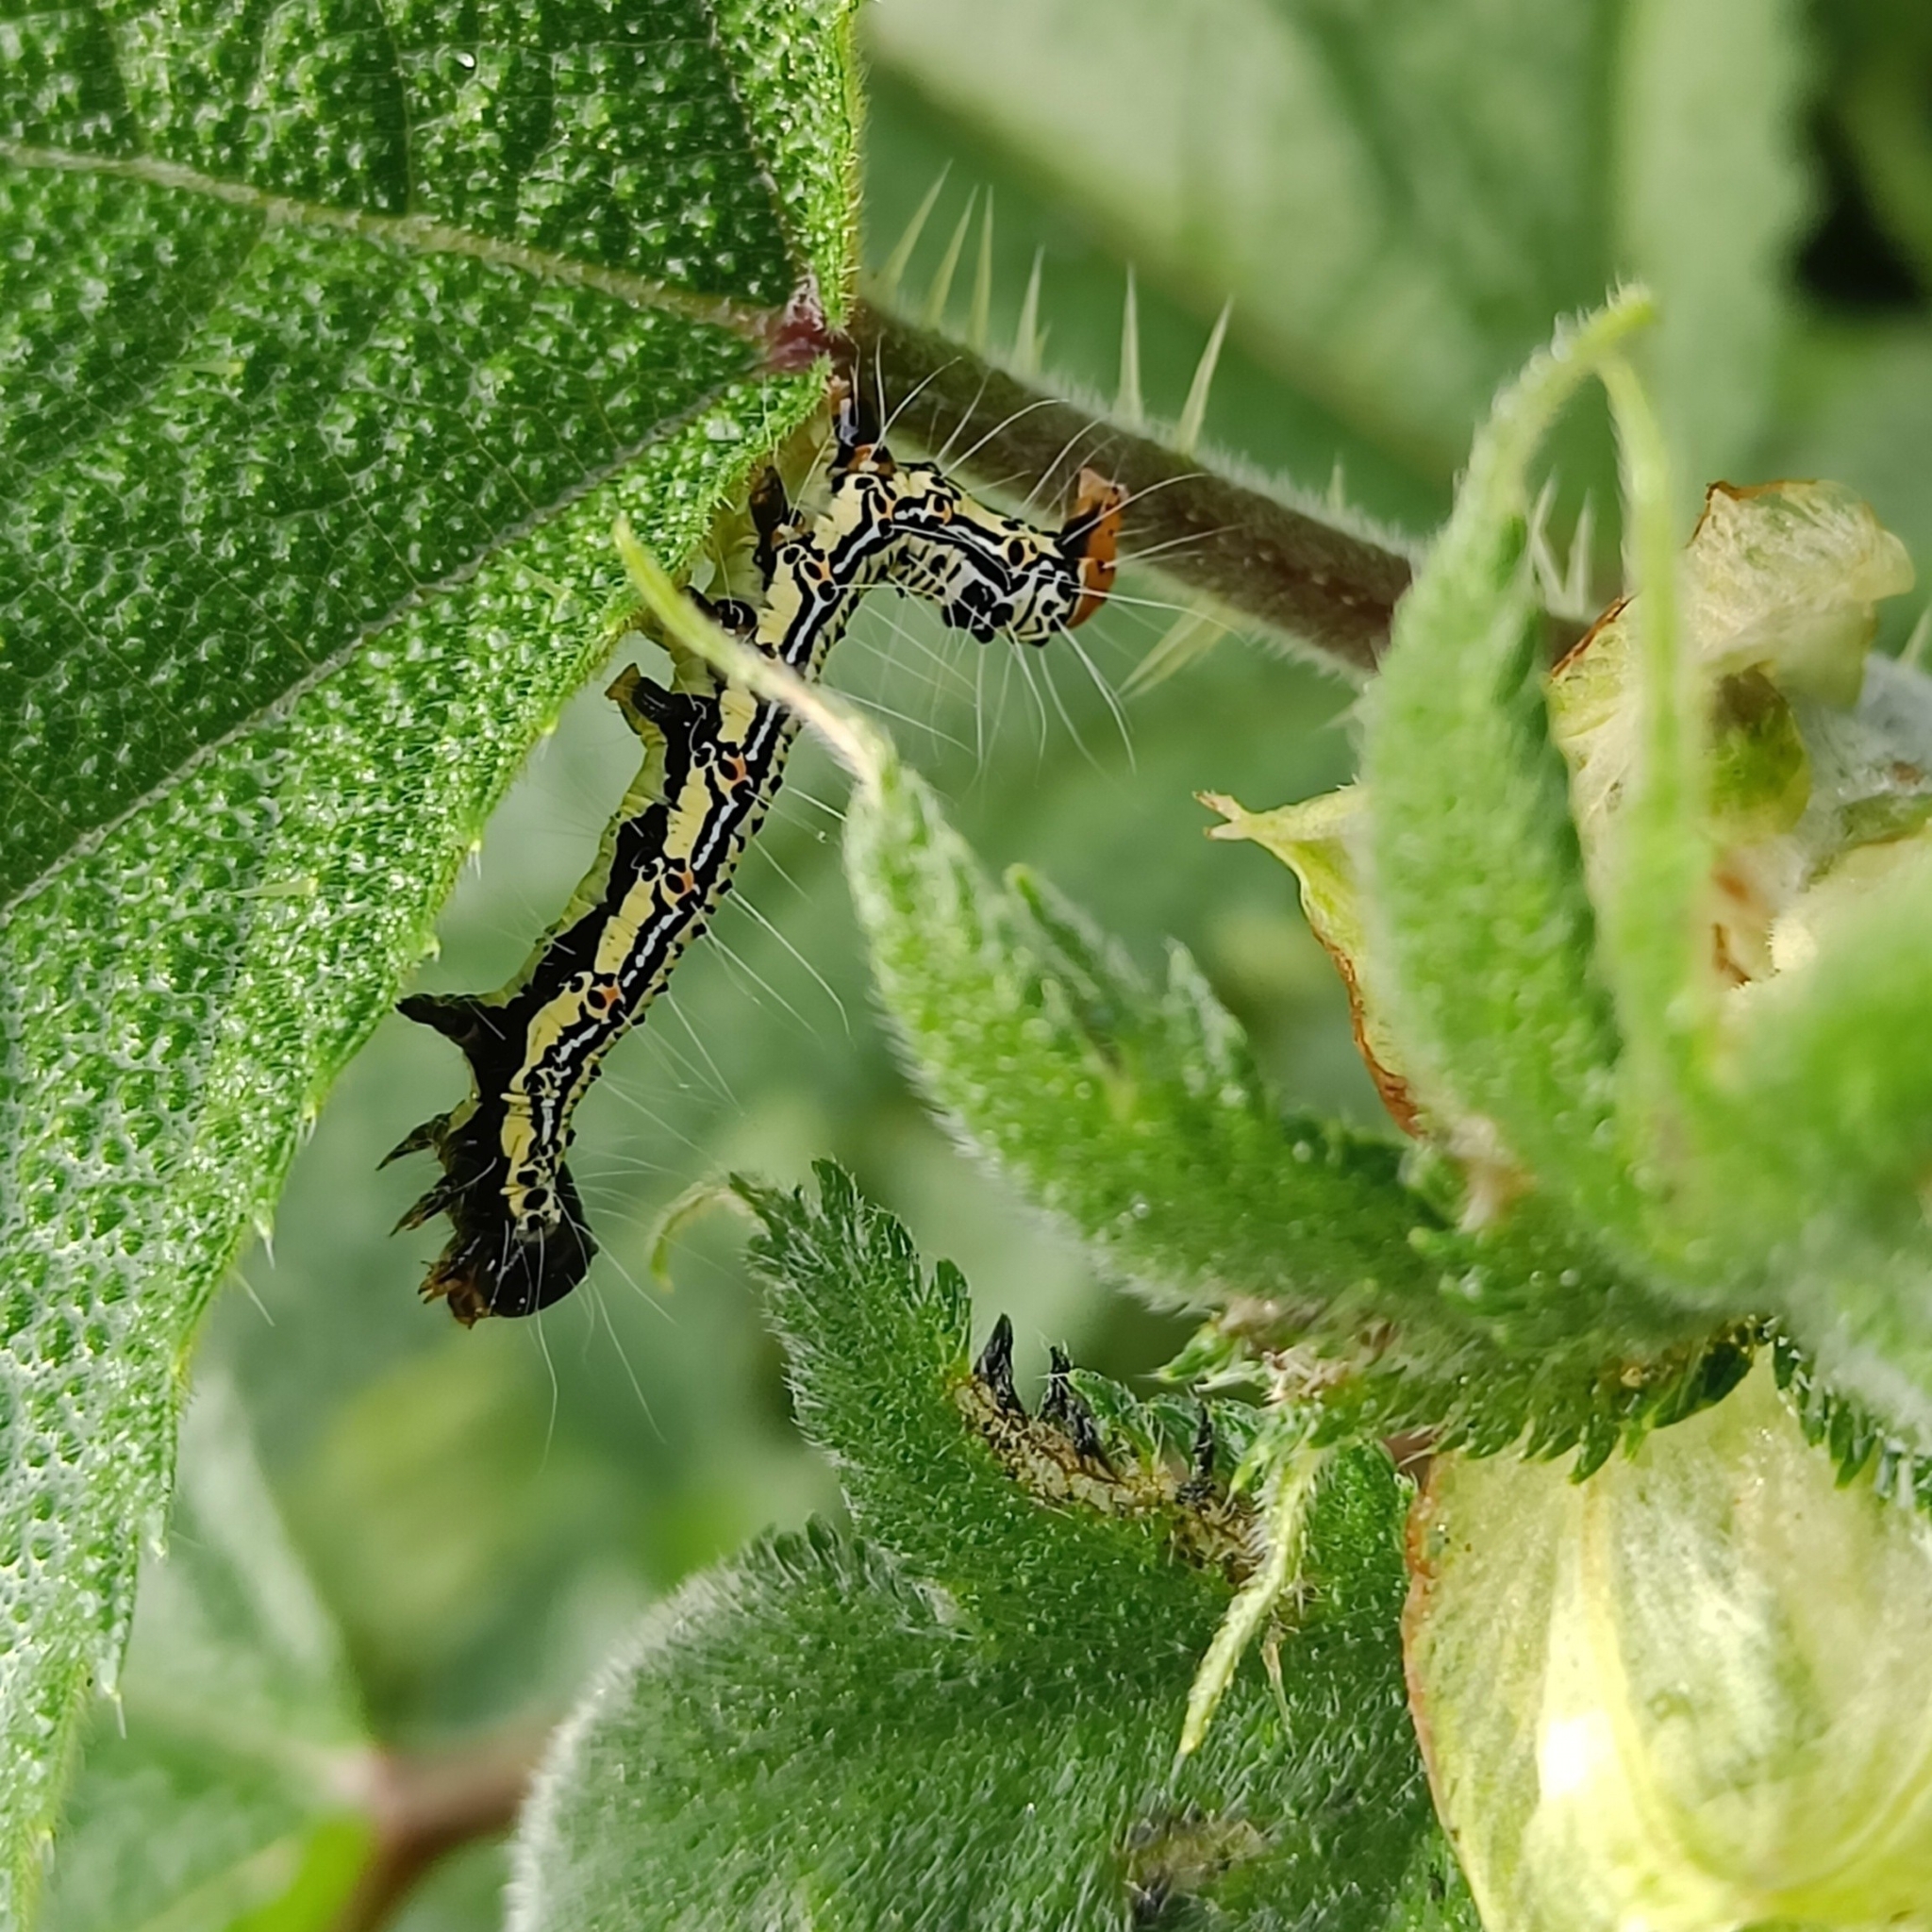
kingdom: Animalia
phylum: Arthropoda
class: Insecta
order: Lepidoptera
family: Erebidae
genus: Arcte
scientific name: Arcte coerula
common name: Ramie moth
